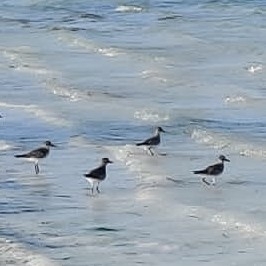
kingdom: Animalia
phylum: Chordata
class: Aves
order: Charadriiformes
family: Charadriidae
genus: Pluvialis
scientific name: Pluvialis squatarola
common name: Grey plover
